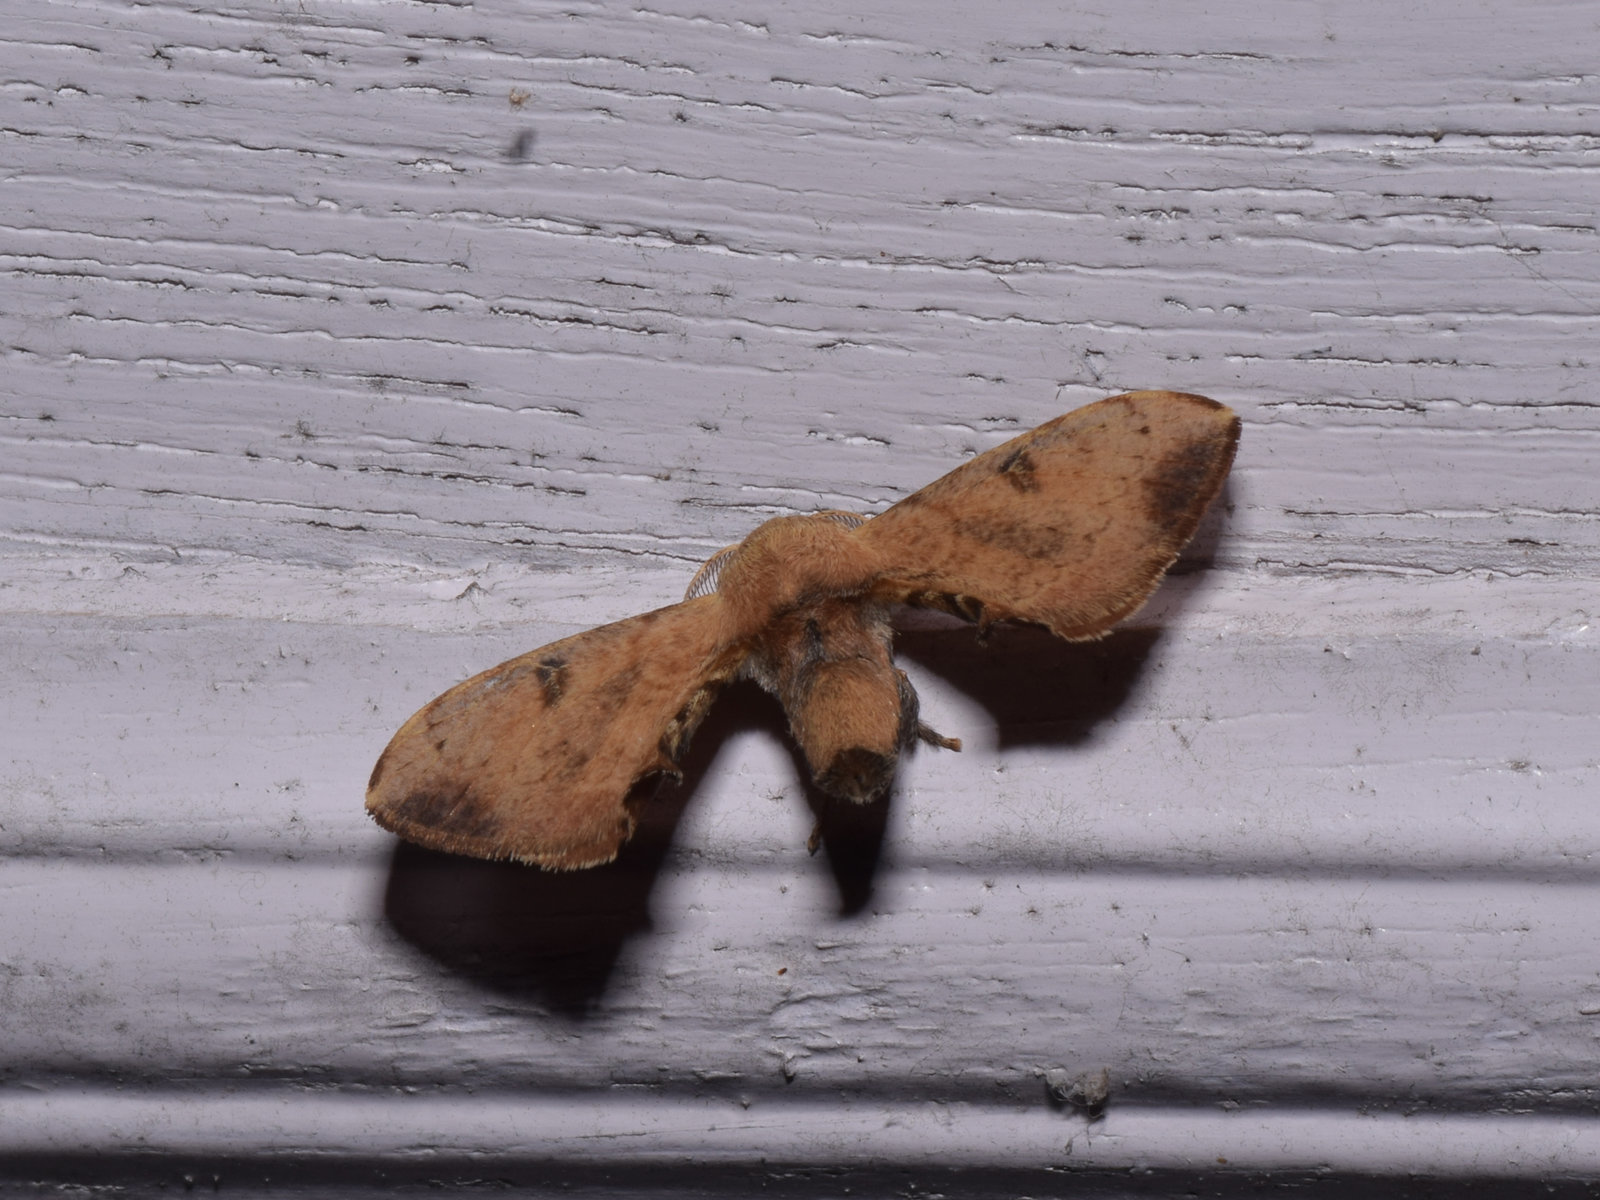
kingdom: Animalia
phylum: Arthropoda
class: Insecta
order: Lepidoptera
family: Bombycidae
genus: Trilocha
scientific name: Trilocha varians
